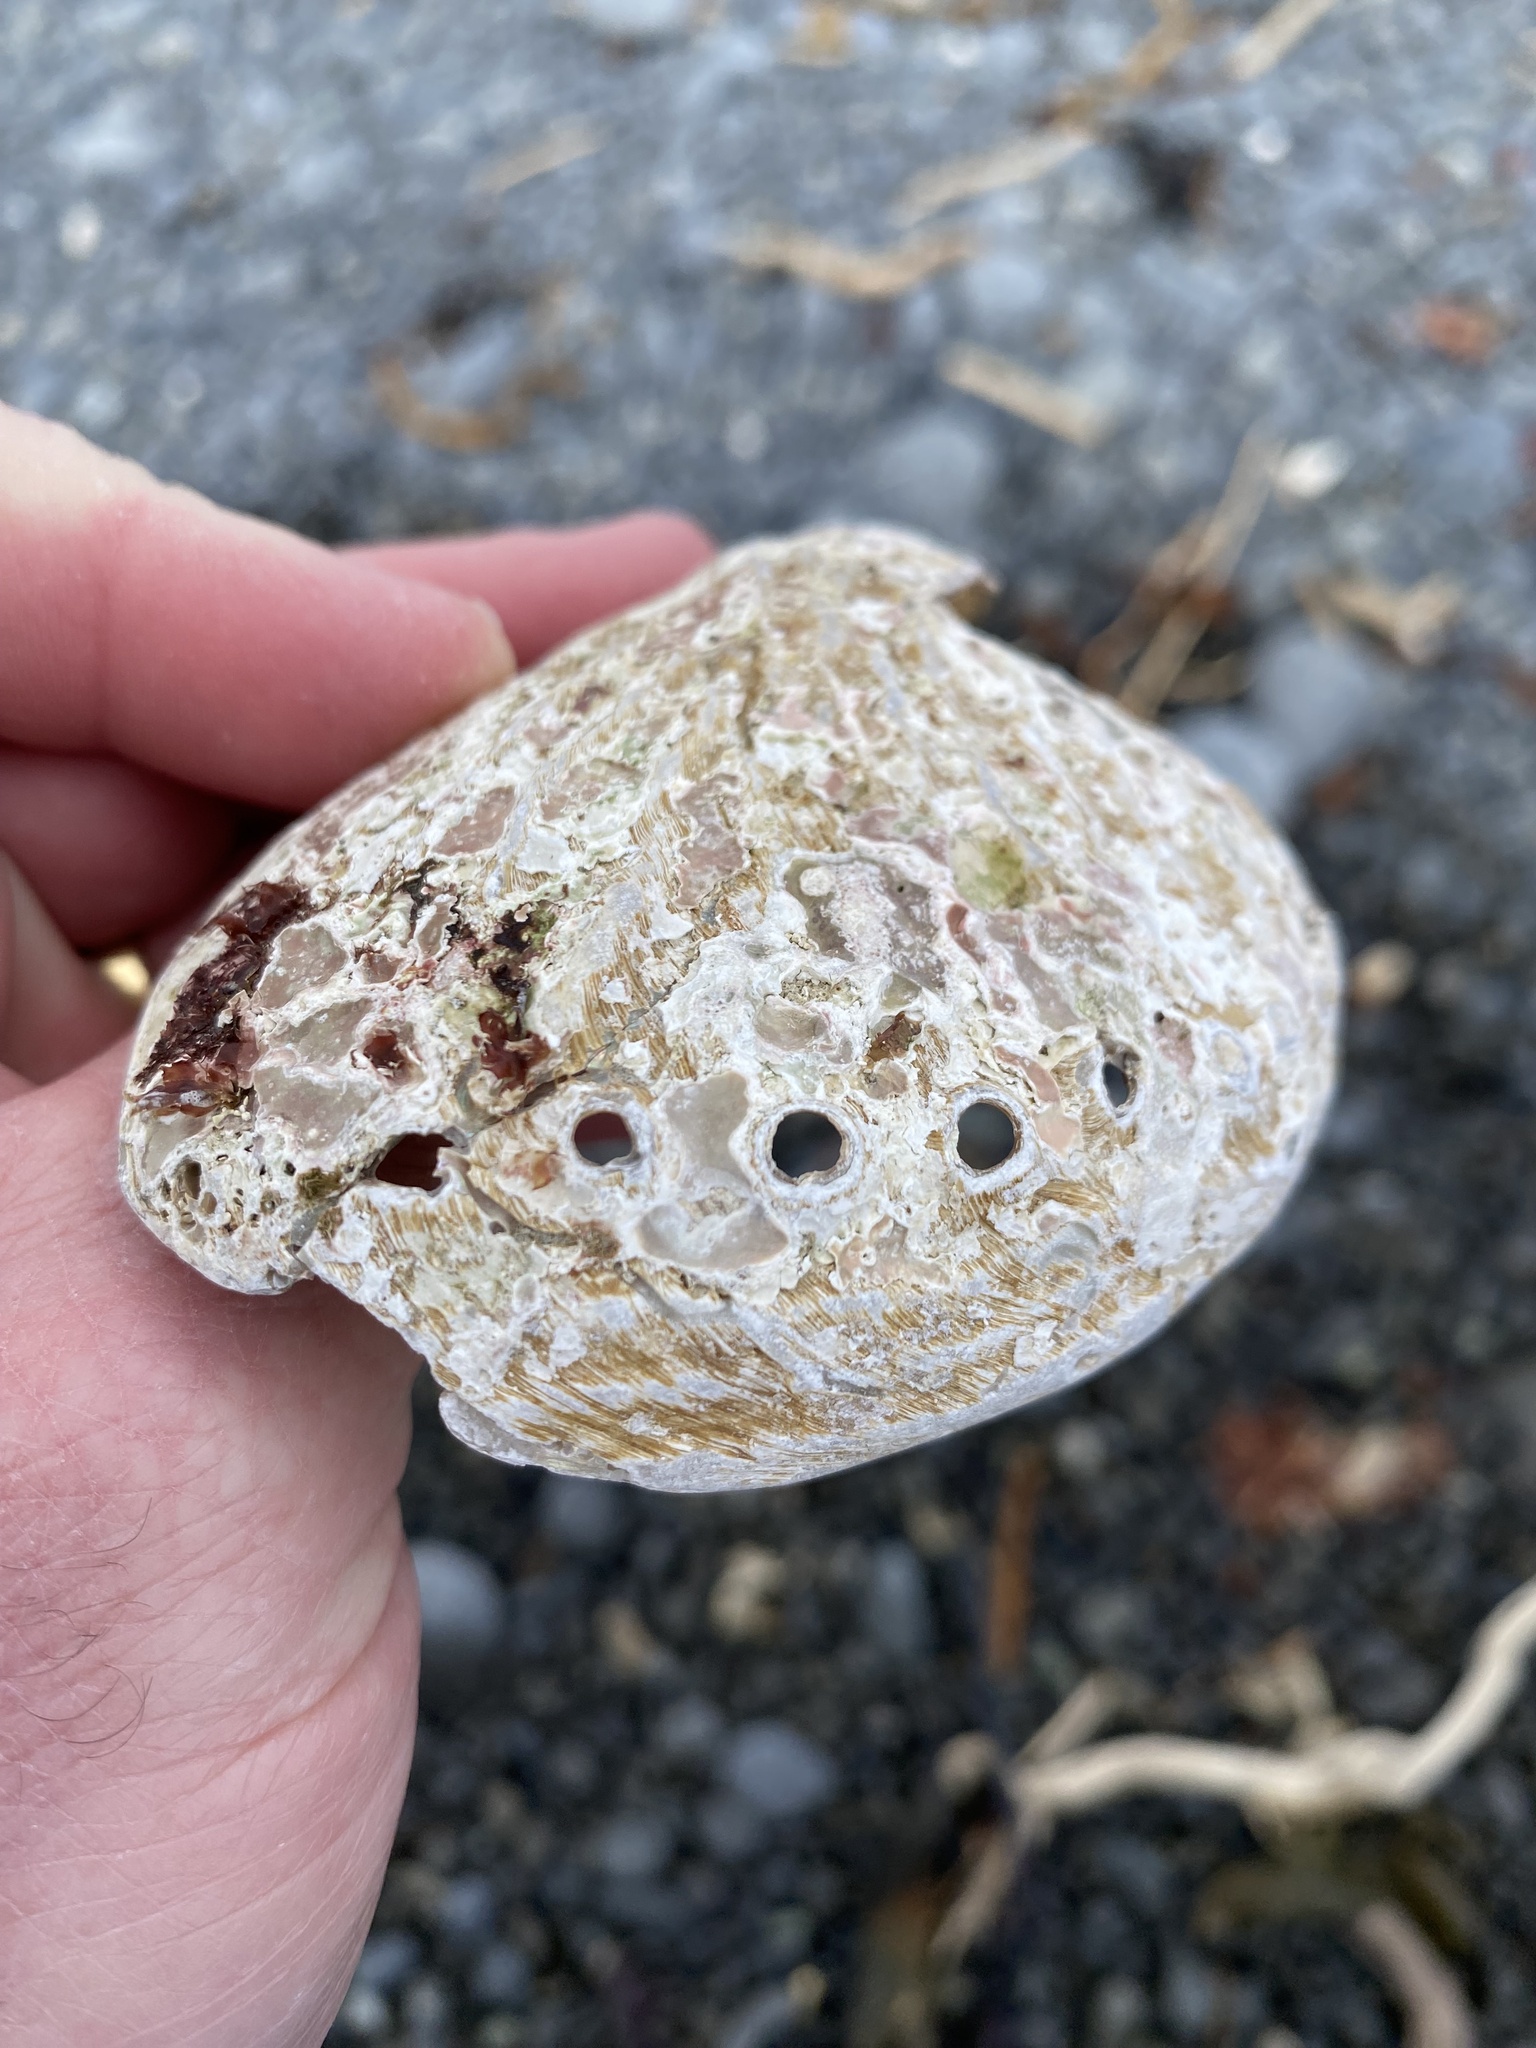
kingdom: Animalia
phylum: Mollusca
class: Gastropoda
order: Lepetellida
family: Haliotidae
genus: Haliotis
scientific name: Haliotis australis
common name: Silver abalone
